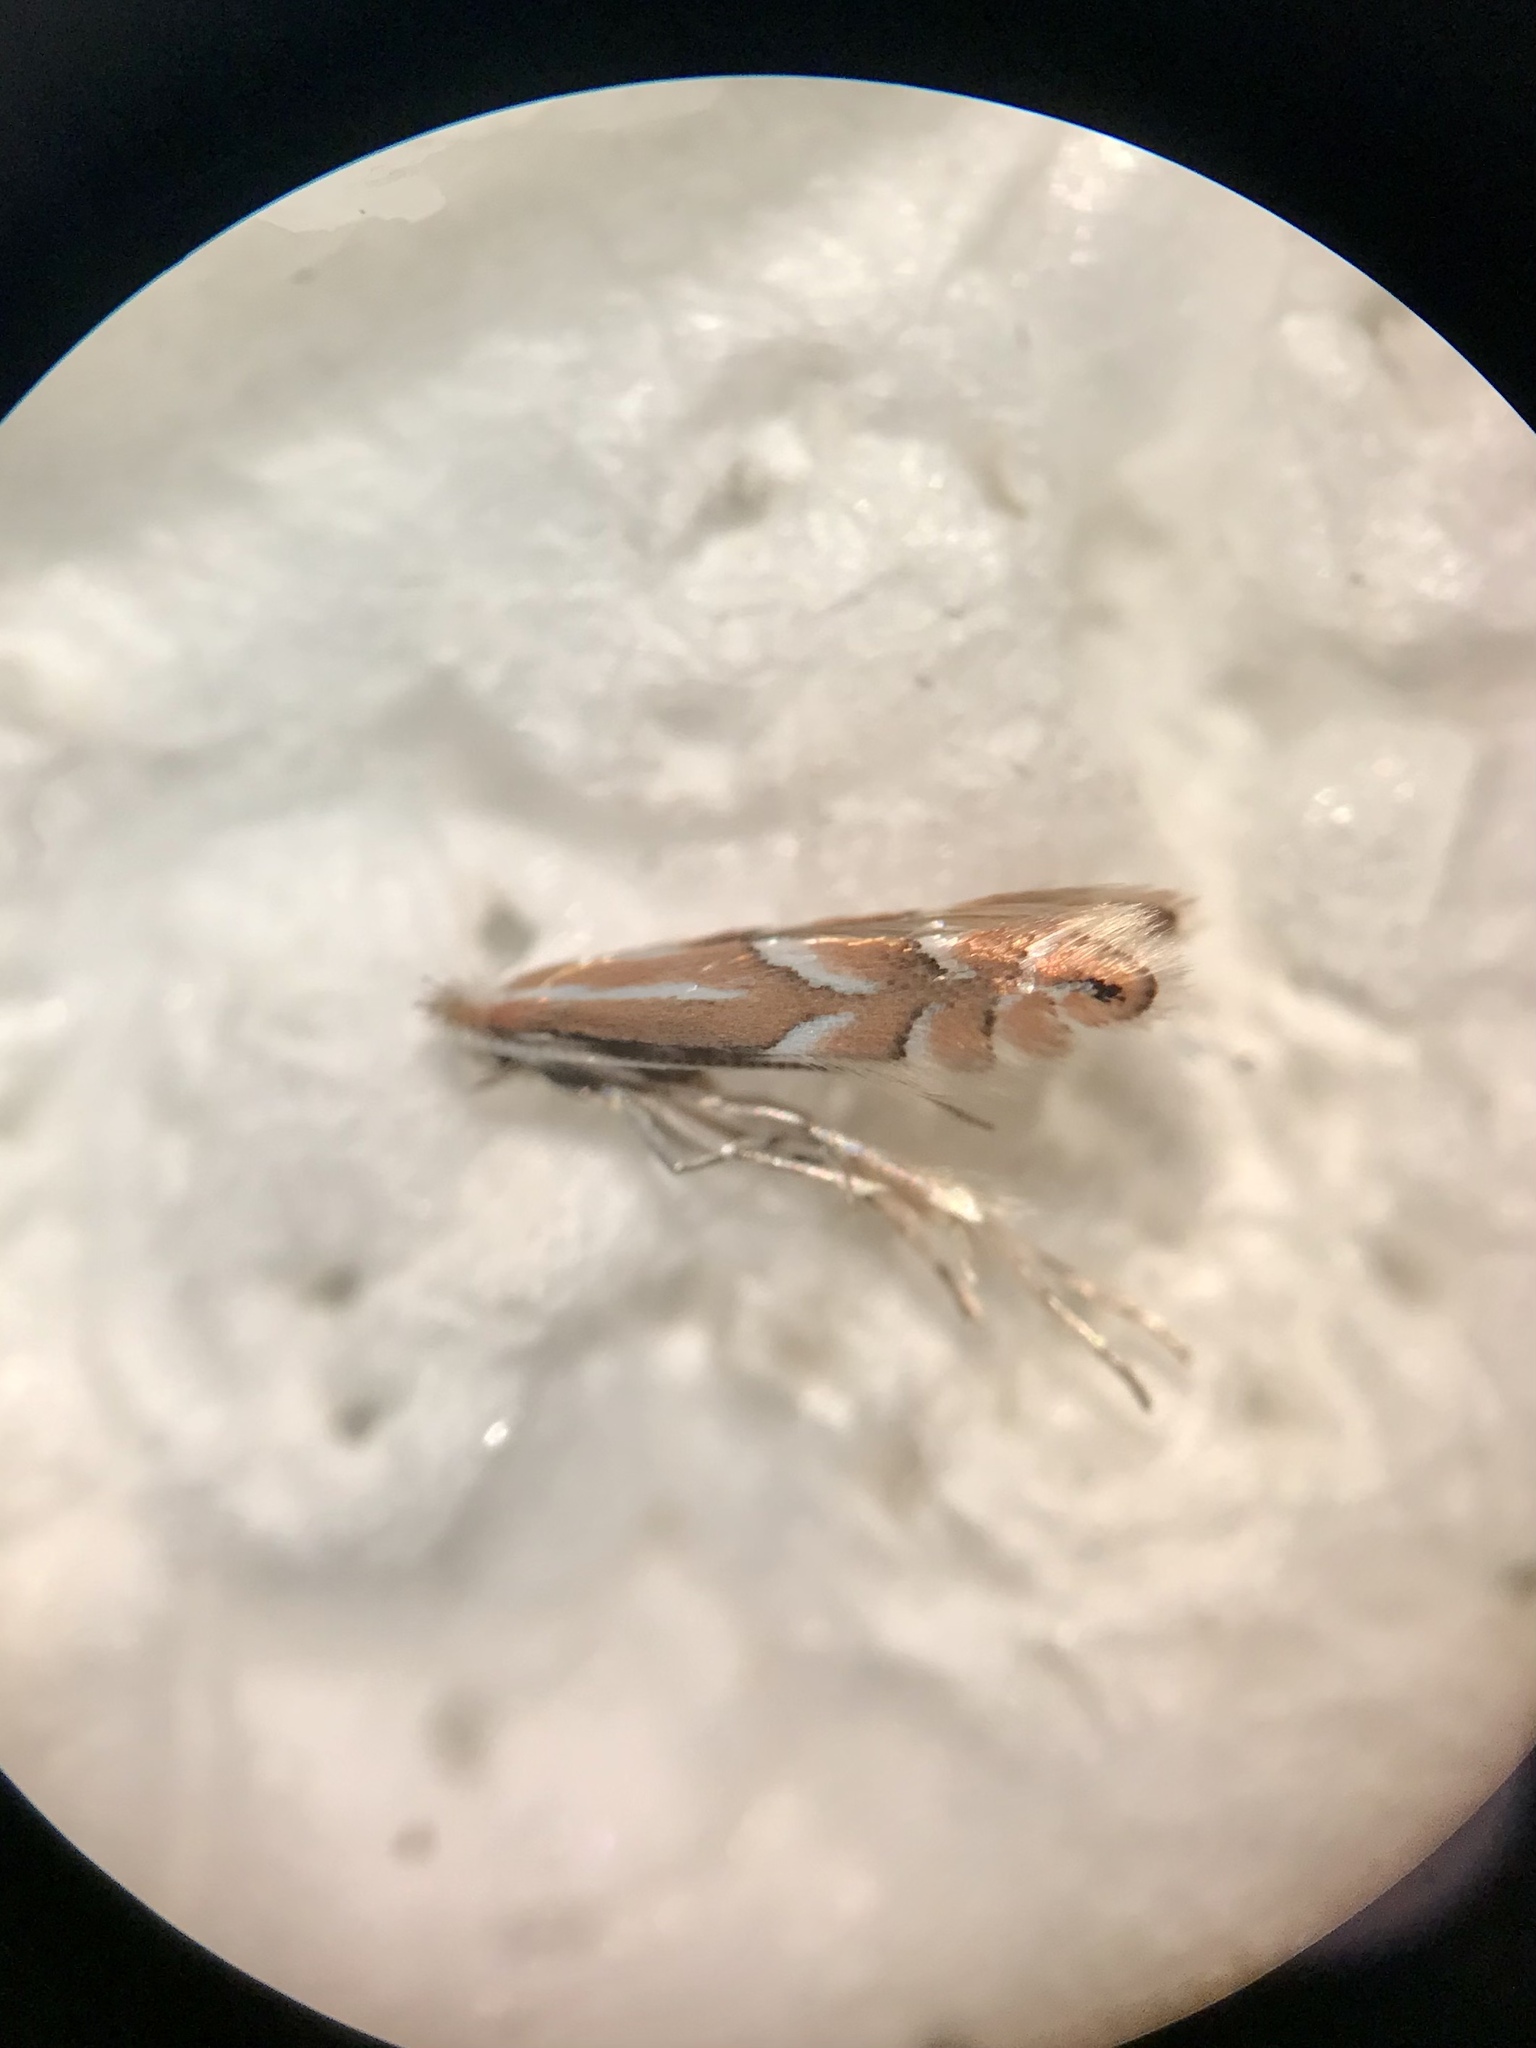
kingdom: Animalia
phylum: Arthropoda
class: Insecta
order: Lepidoptera
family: Gracillariidae
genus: Phyllonorycter
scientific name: Phyllonorycter intermixta
